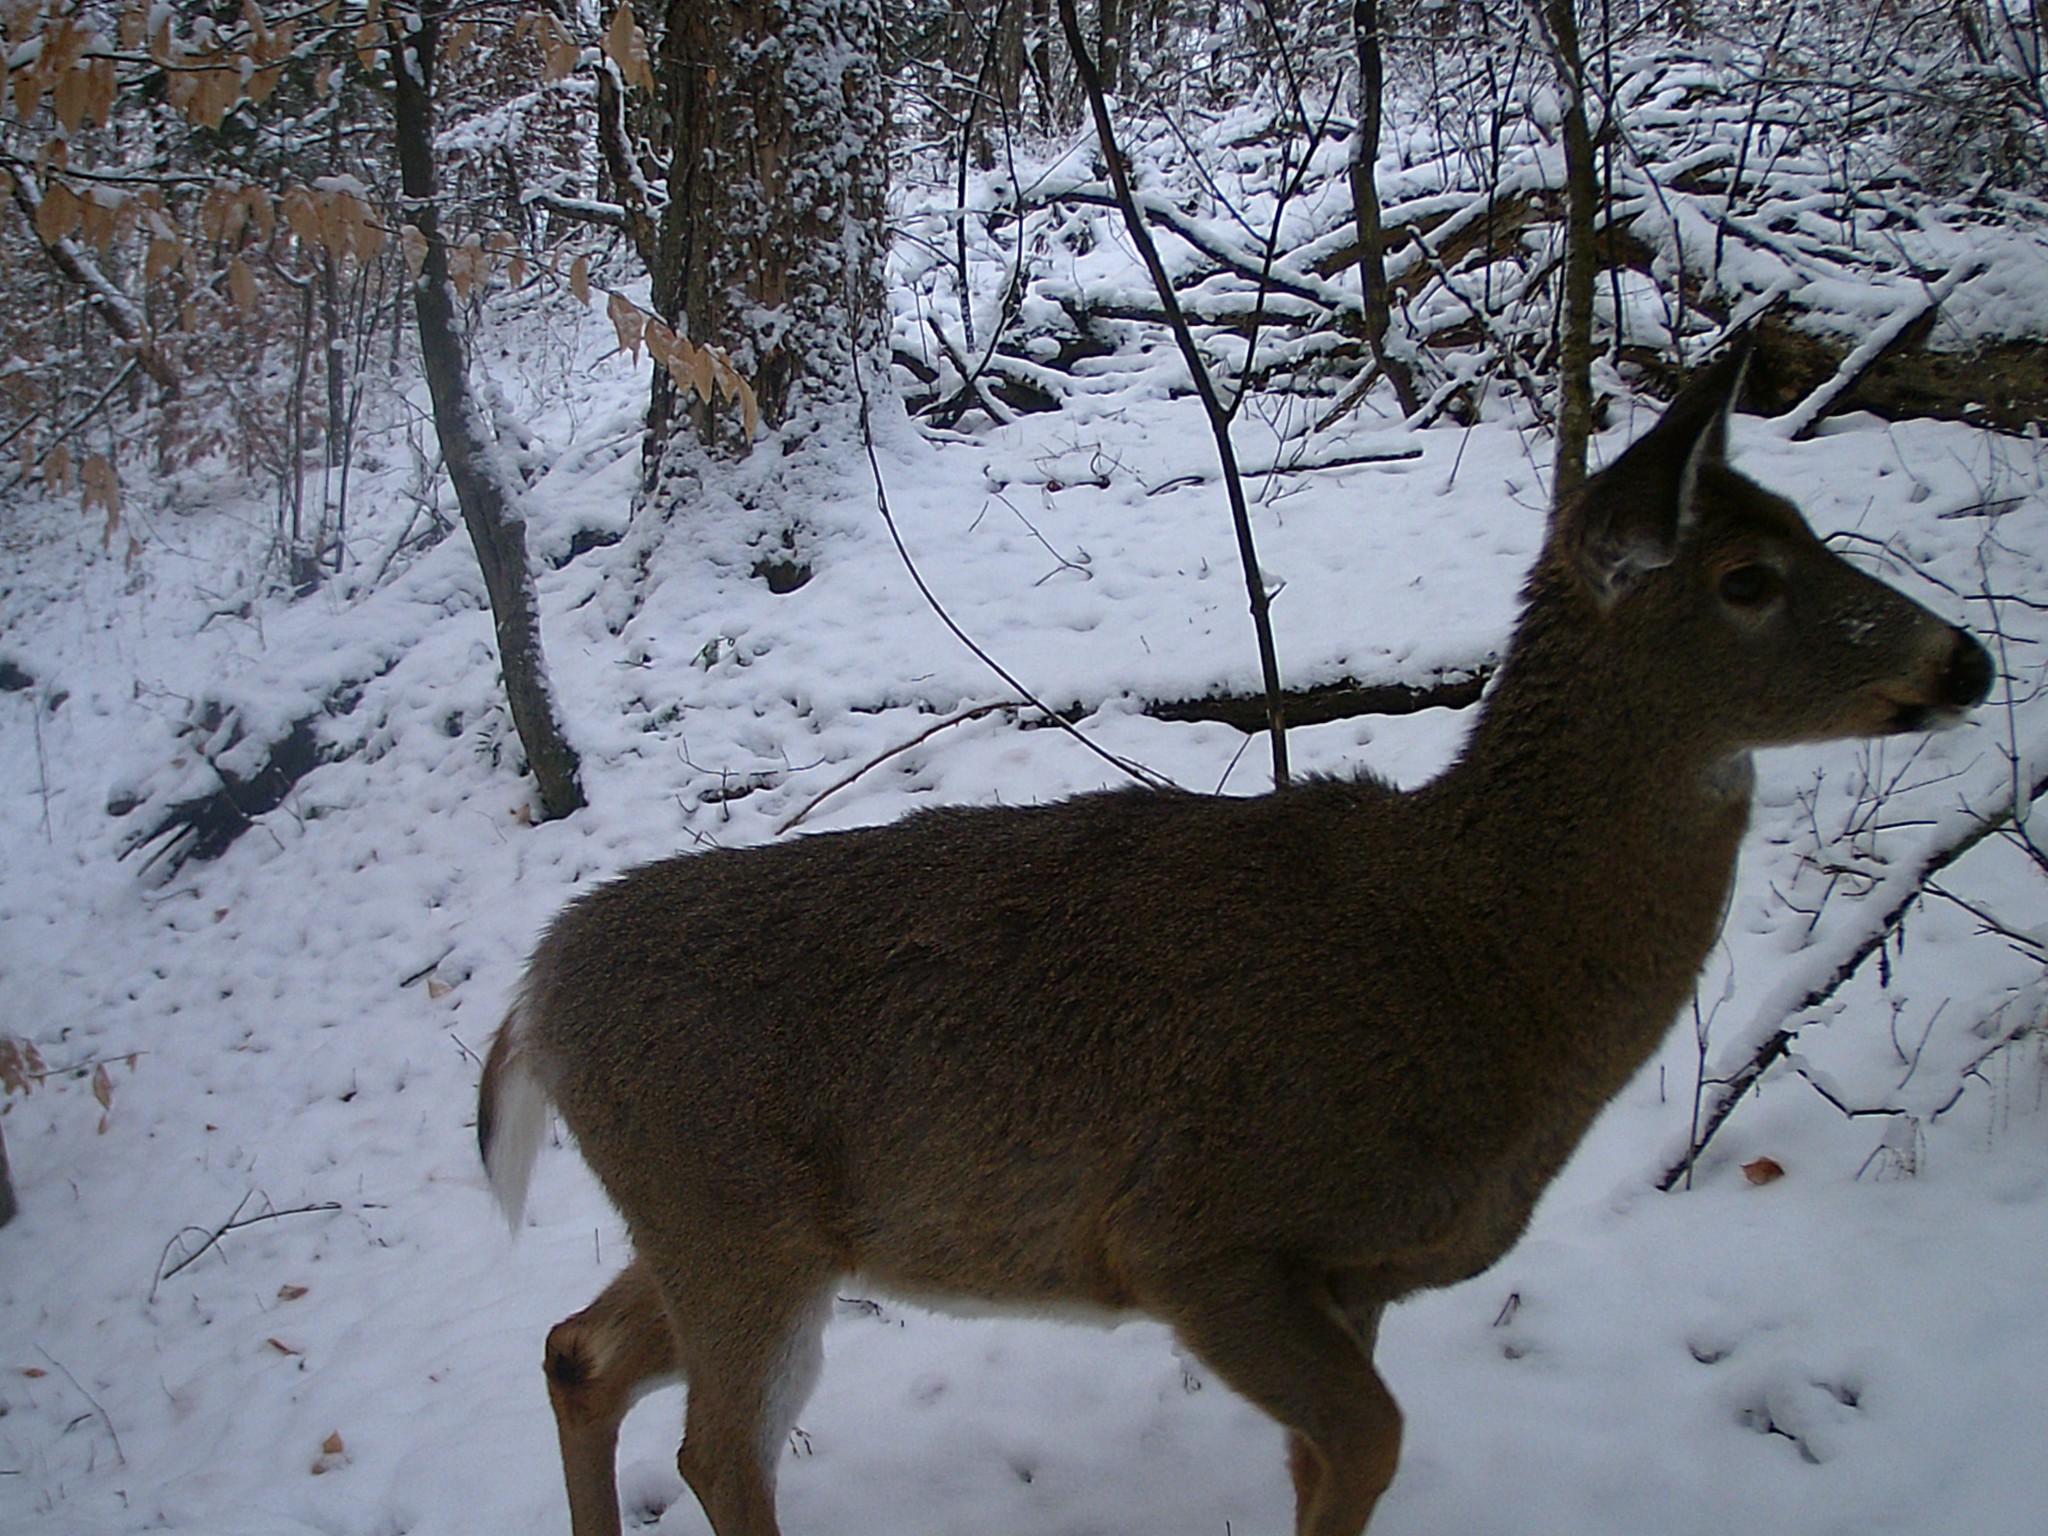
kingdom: Animalia
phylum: Chordata
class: Mammalia
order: Artiodactyla
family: Cervidae
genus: Odocoileus
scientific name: Odocoileus virginianus
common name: White-tailed deer
